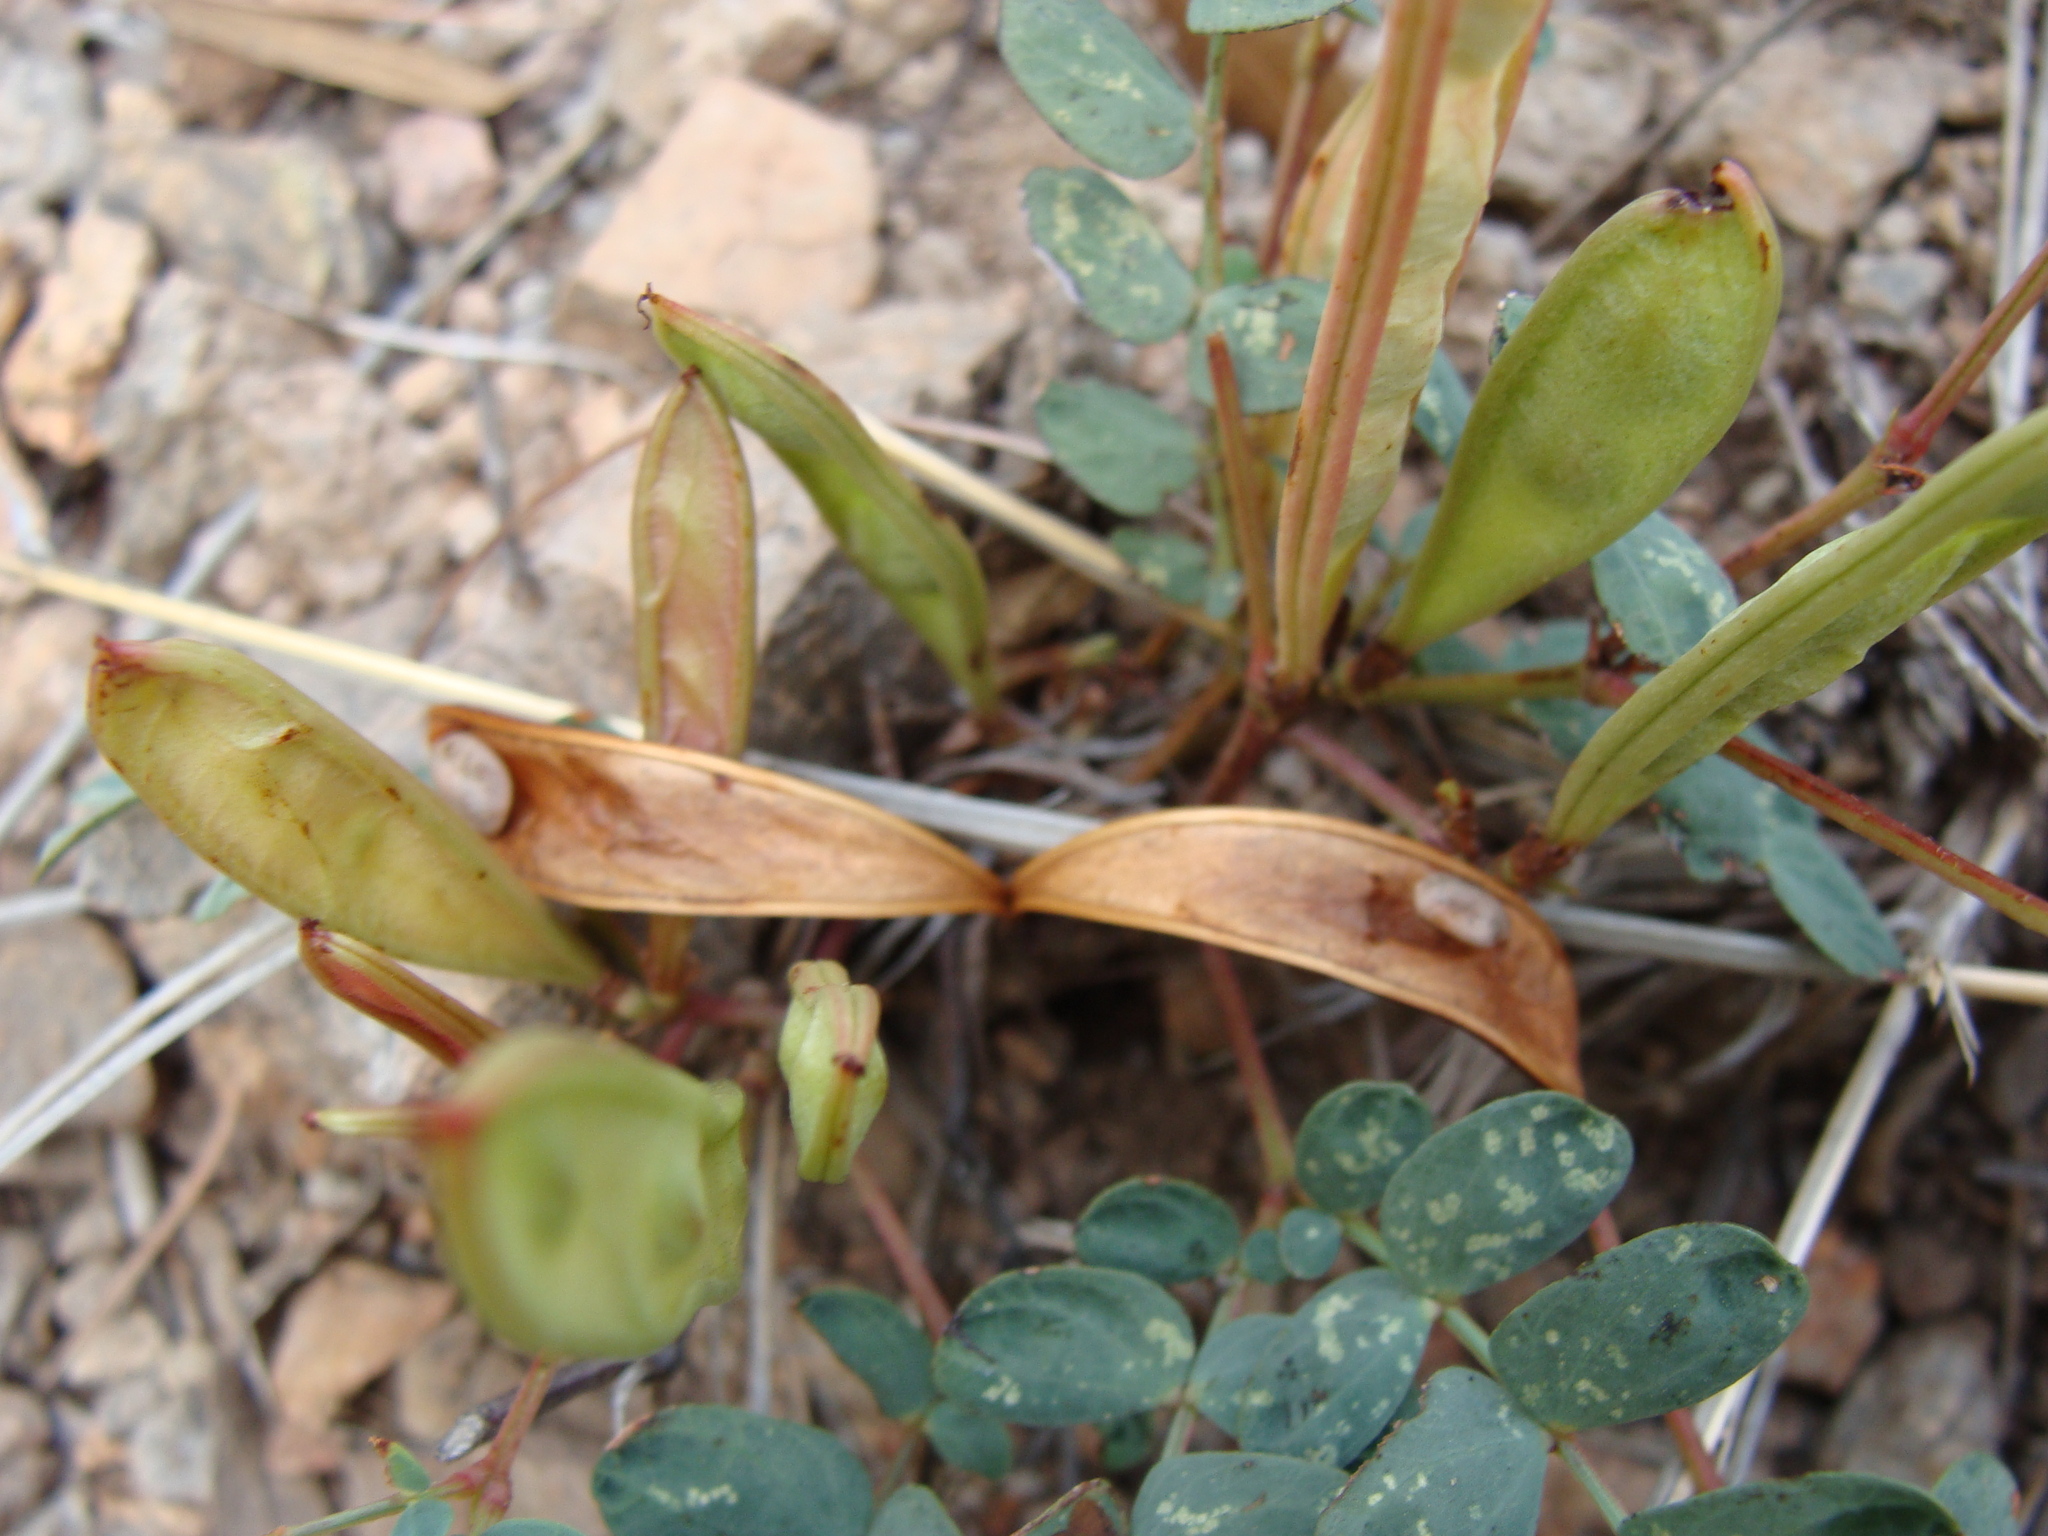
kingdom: Plantae
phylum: Tracheophyta
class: Magnoliopsida
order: Fabales
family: Fabaceae
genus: Calliandra
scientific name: Calliandra humilis
